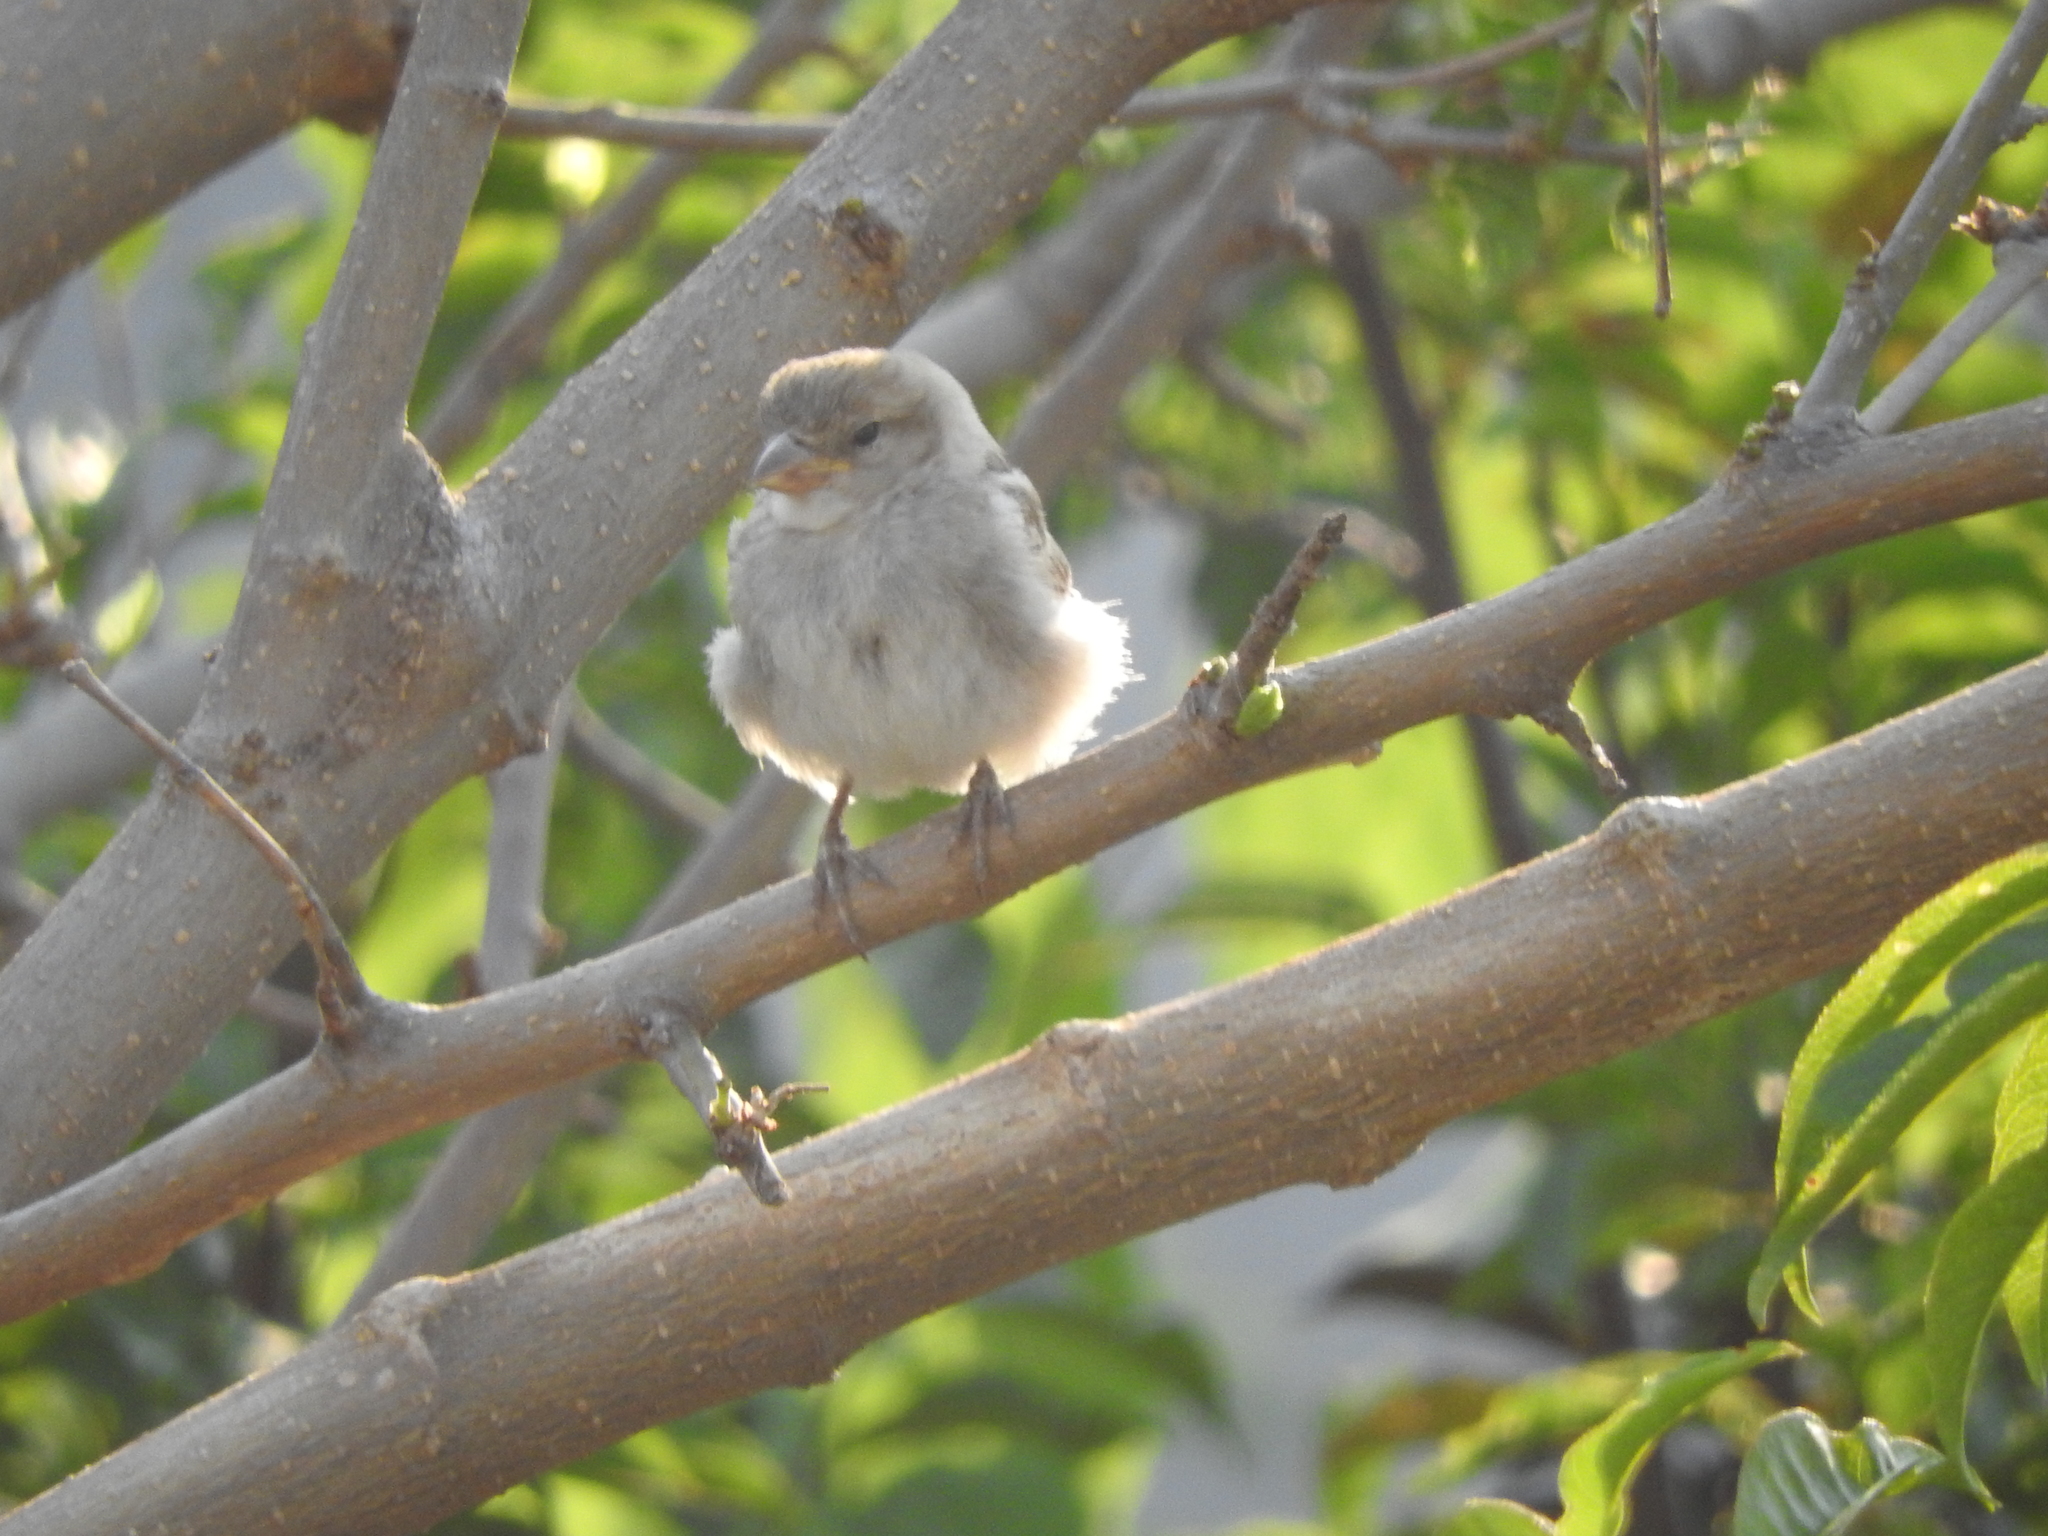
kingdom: Animalia
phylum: Chordata
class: Aves
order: Passeriformes
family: Passeridae
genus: Passer
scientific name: Passer domesticus
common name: House sparrow
